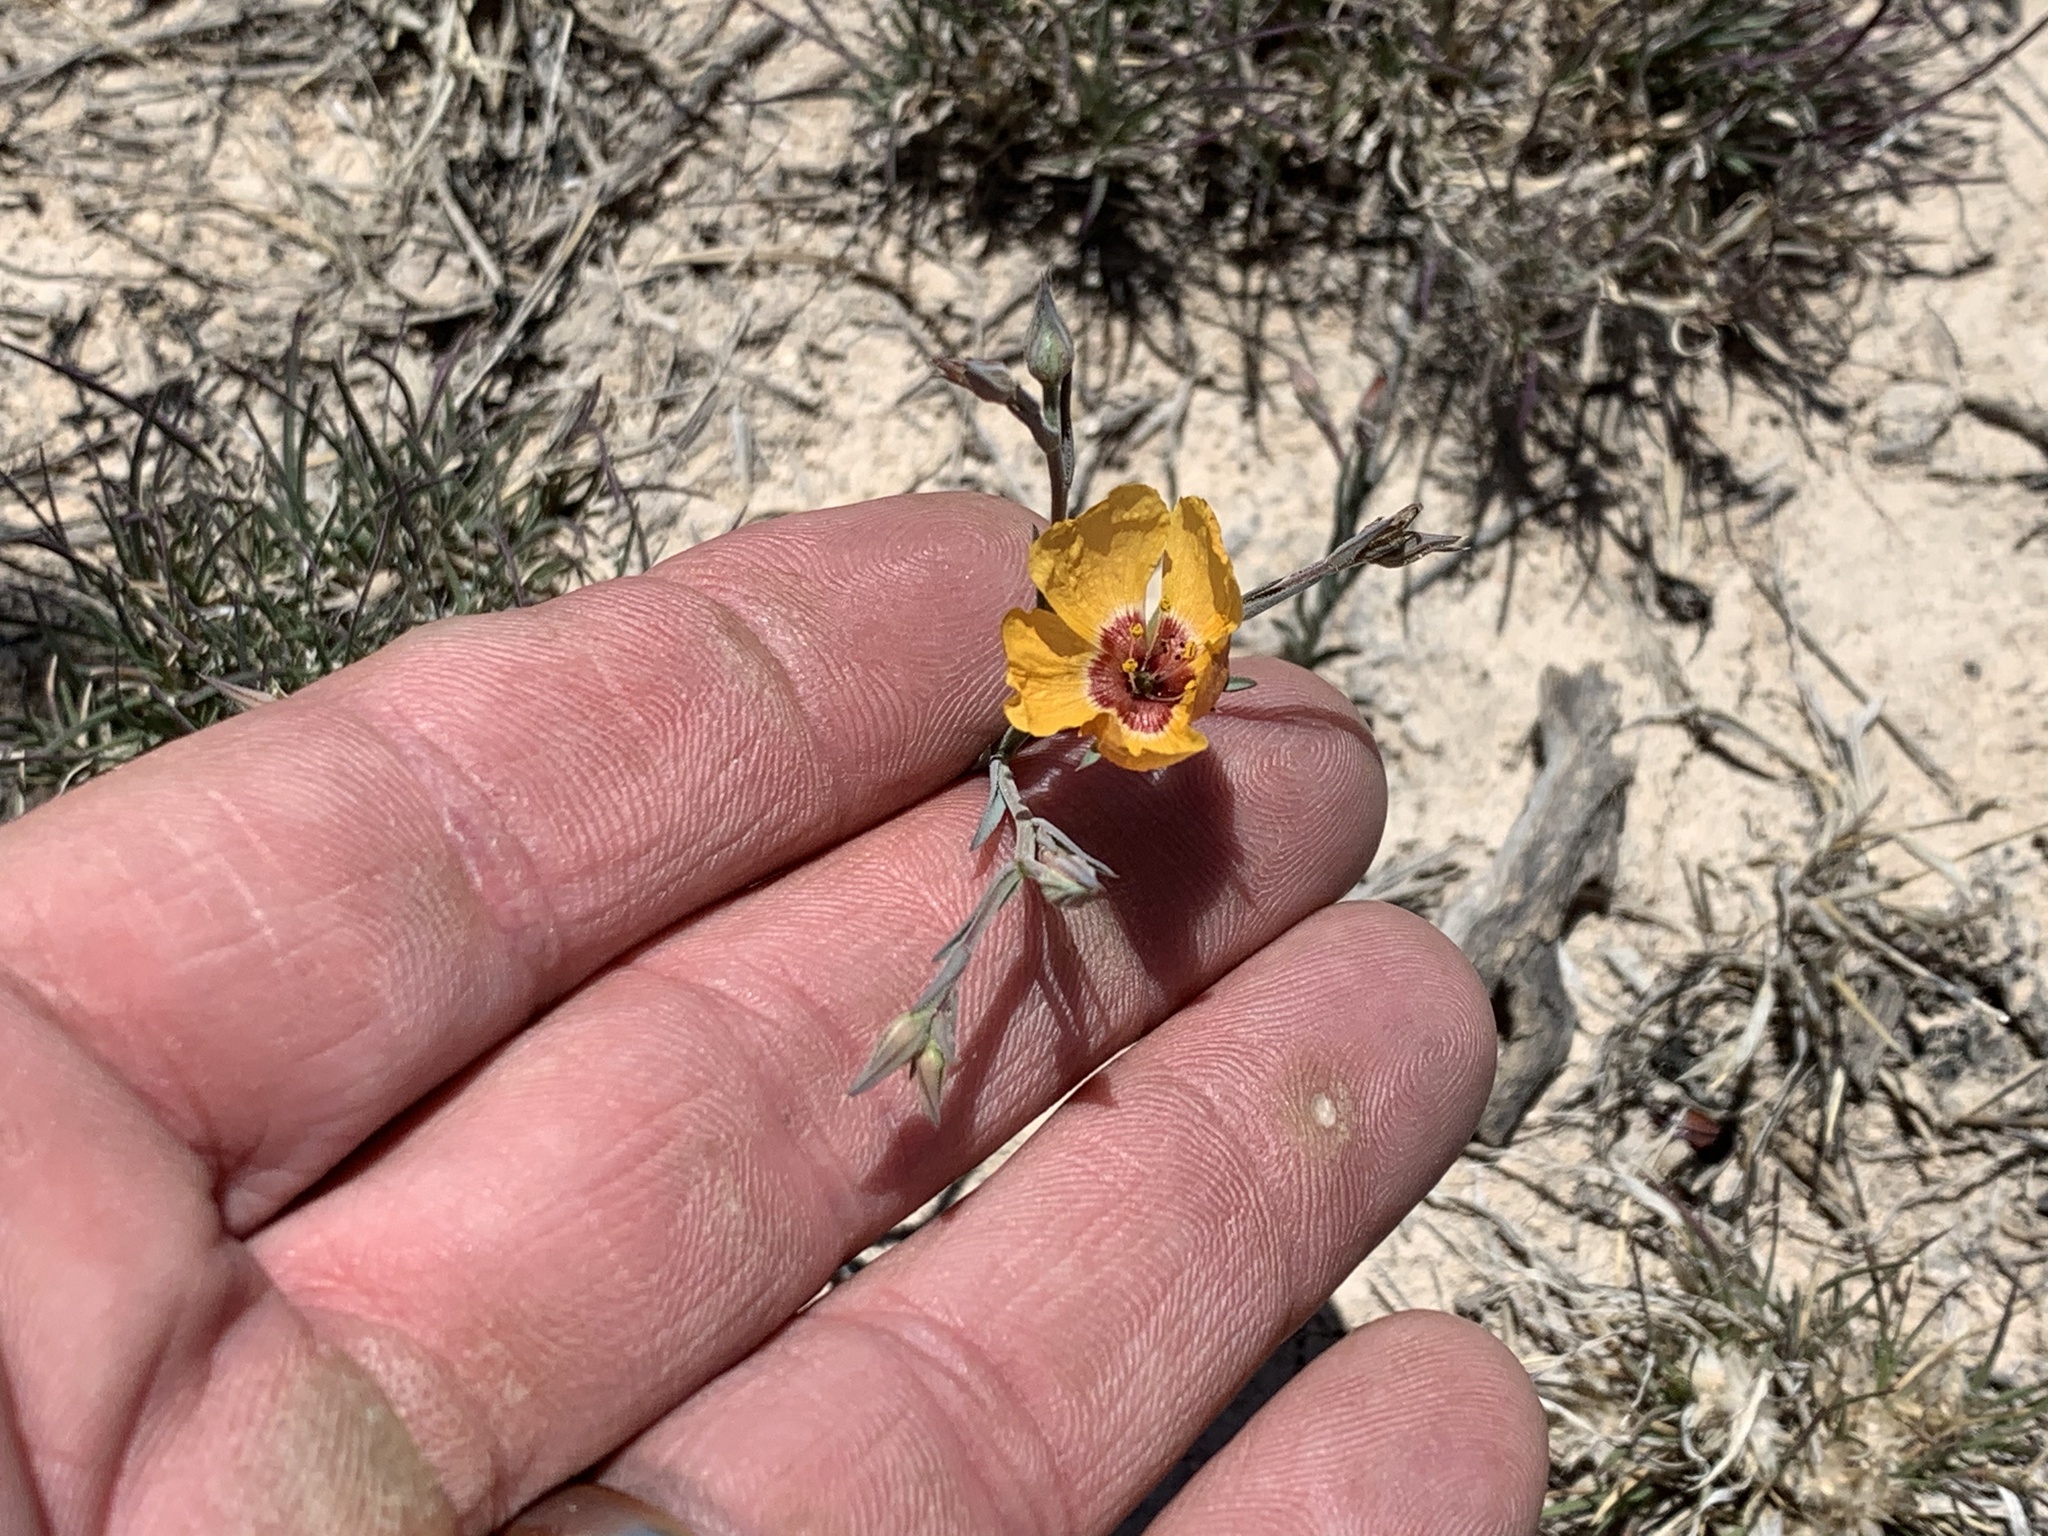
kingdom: Plantae
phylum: Tracheophyta
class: Magnoliopsida
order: Malpighiales
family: Linaceae
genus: Linum
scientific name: Linum puberulum
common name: Plains flax
